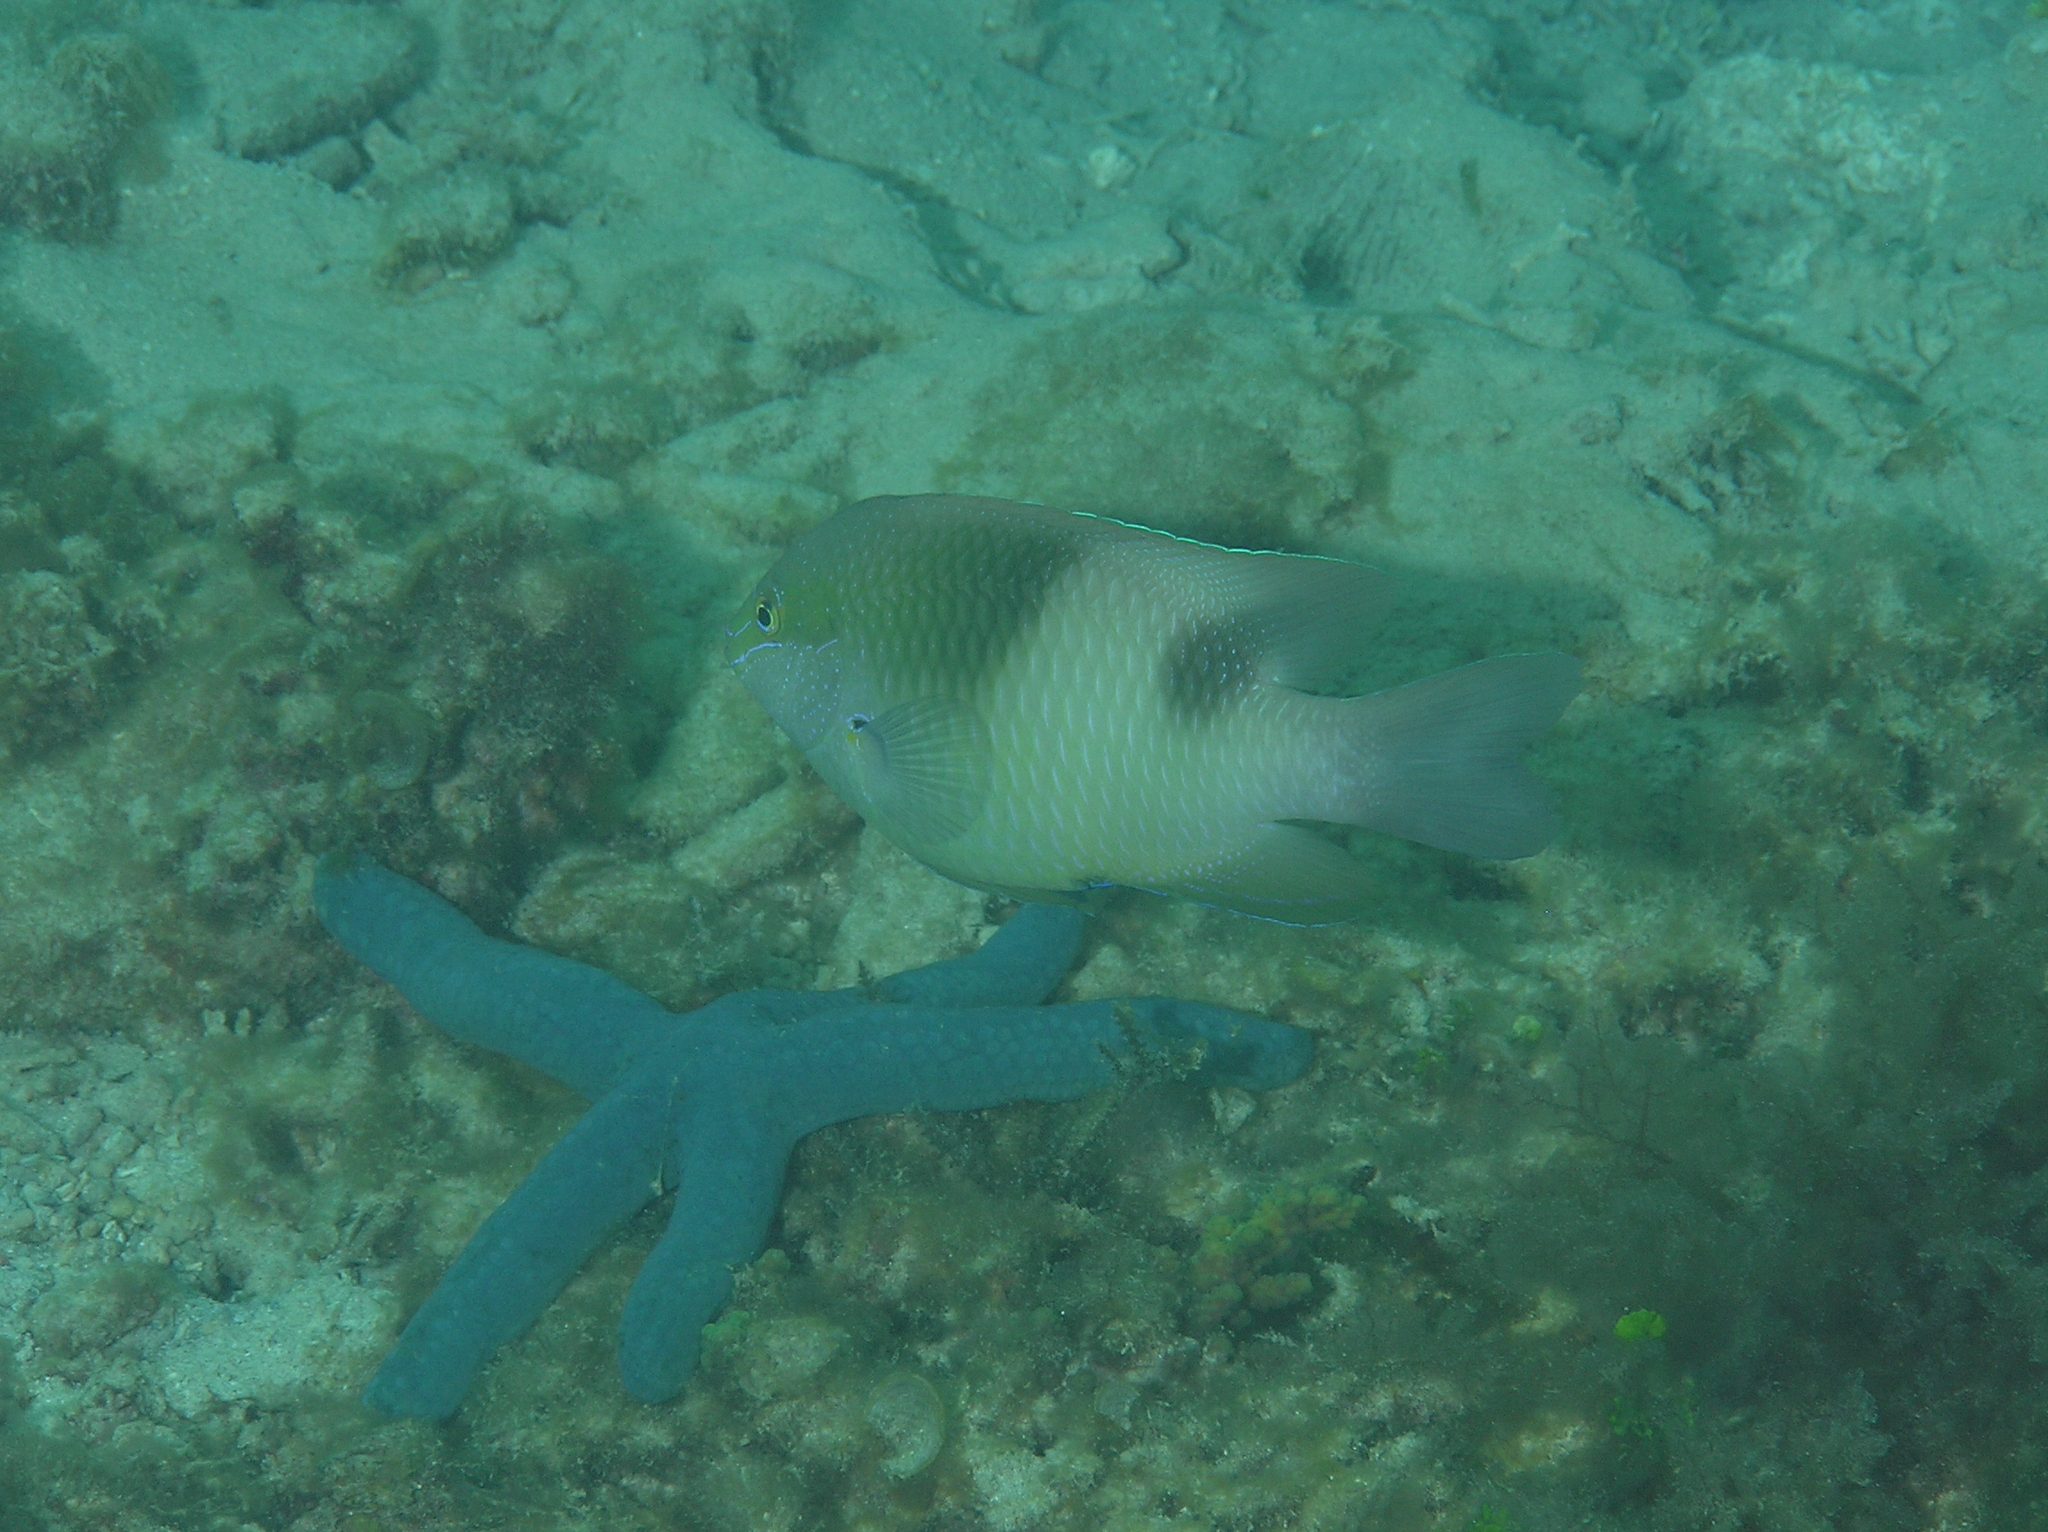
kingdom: Animalia
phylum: Chordata
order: Perciformes
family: Pomacentridae
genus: Dischistodus
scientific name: Dischistodus prosopotaenia
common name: Honey-head damsel
